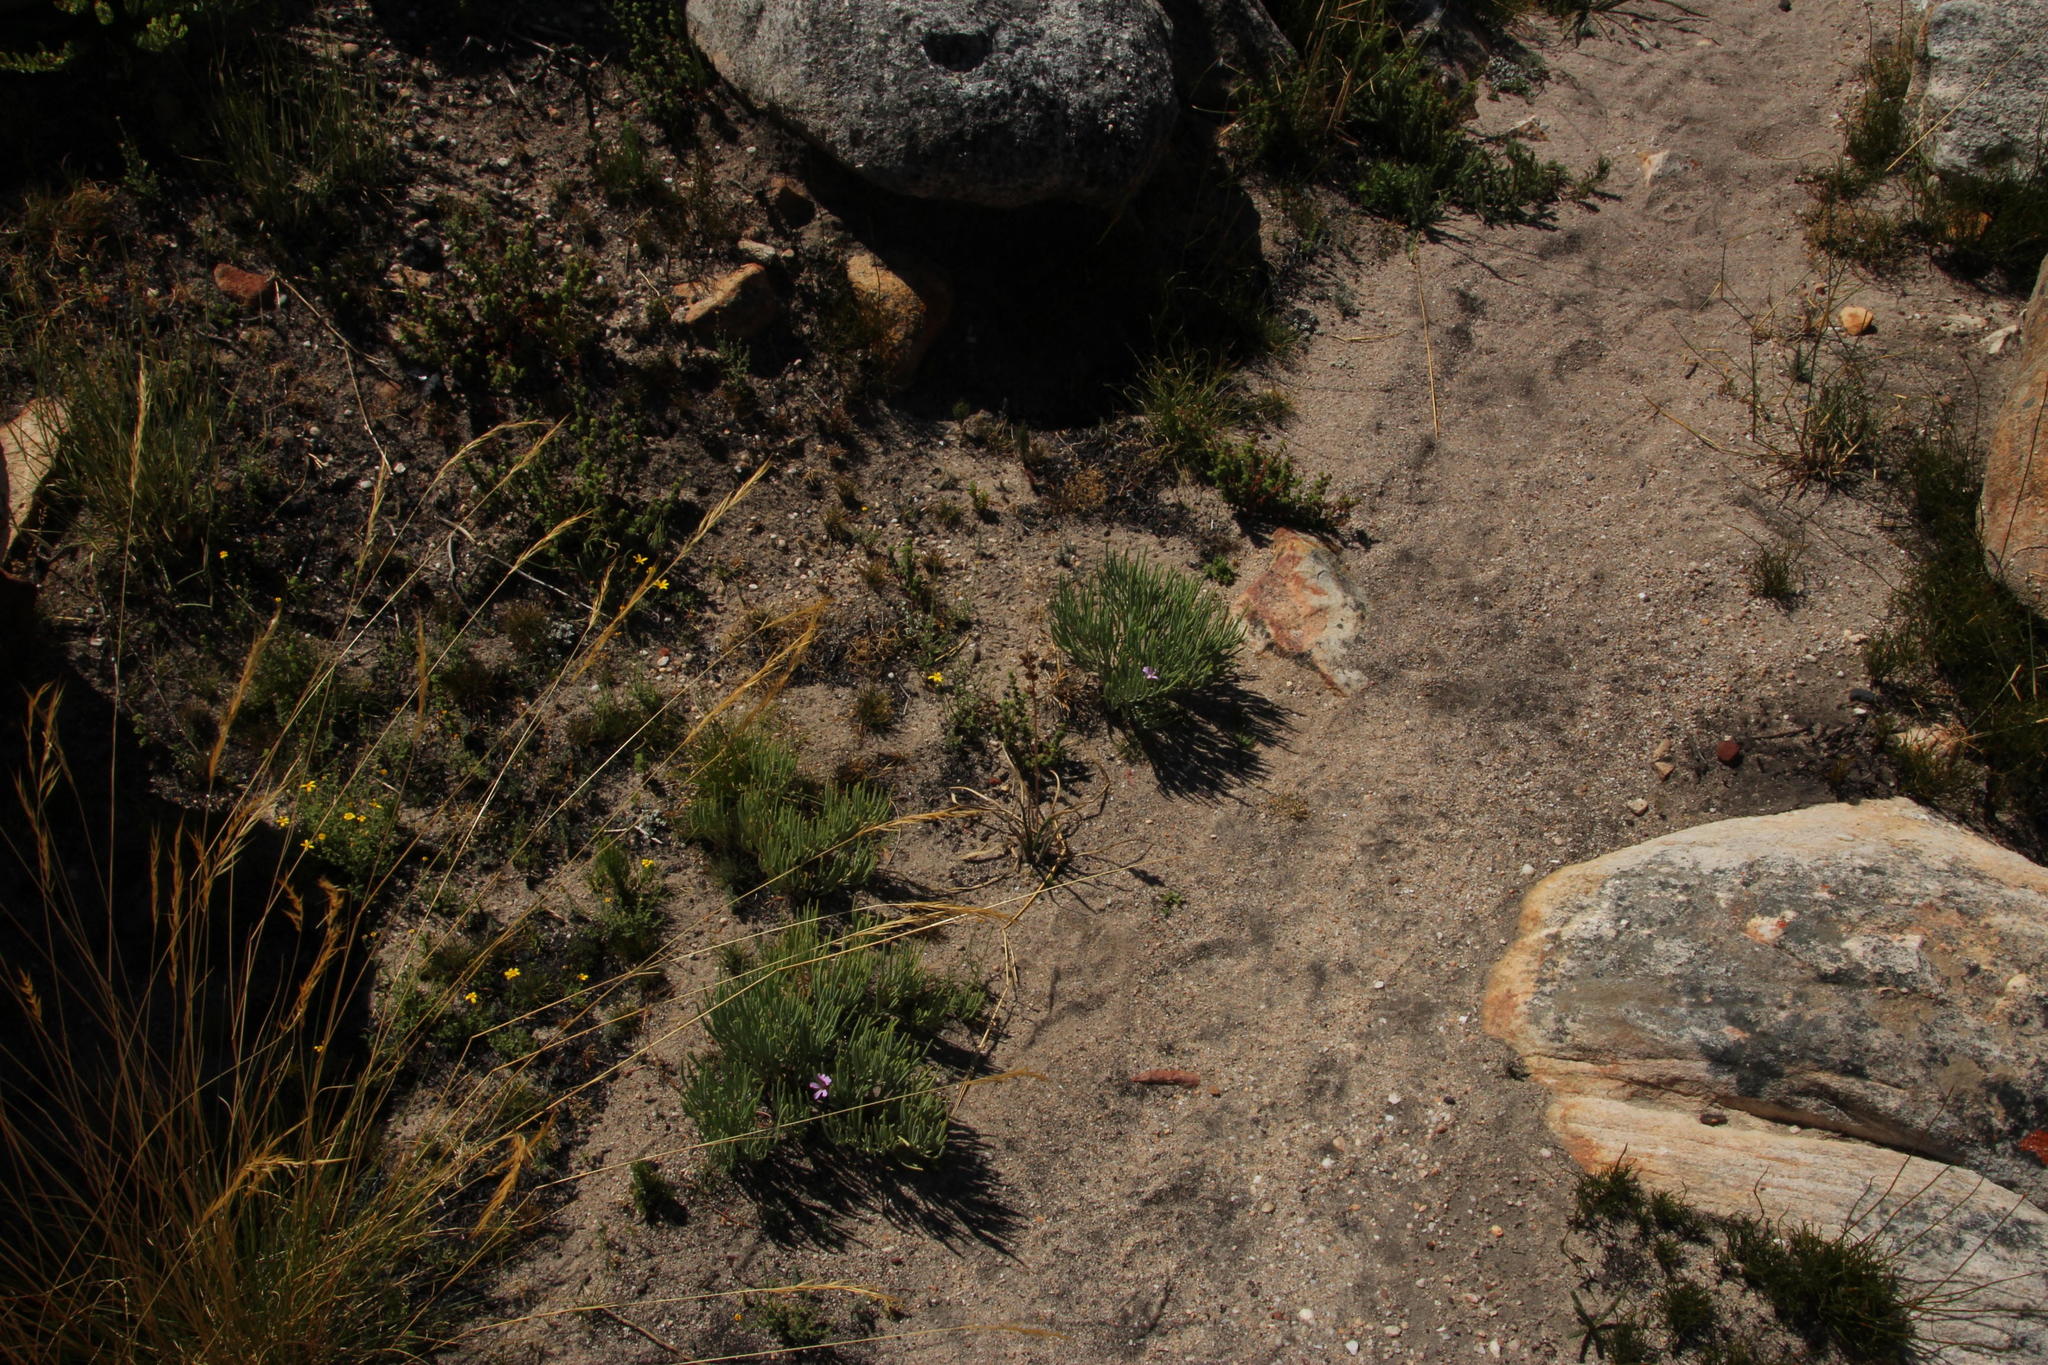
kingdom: Plantae
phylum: Tracheophyta
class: Magnoliopsida
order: Geraniales
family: Geraniaceae
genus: Pelargonium
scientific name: Pelargonium laevigatum
